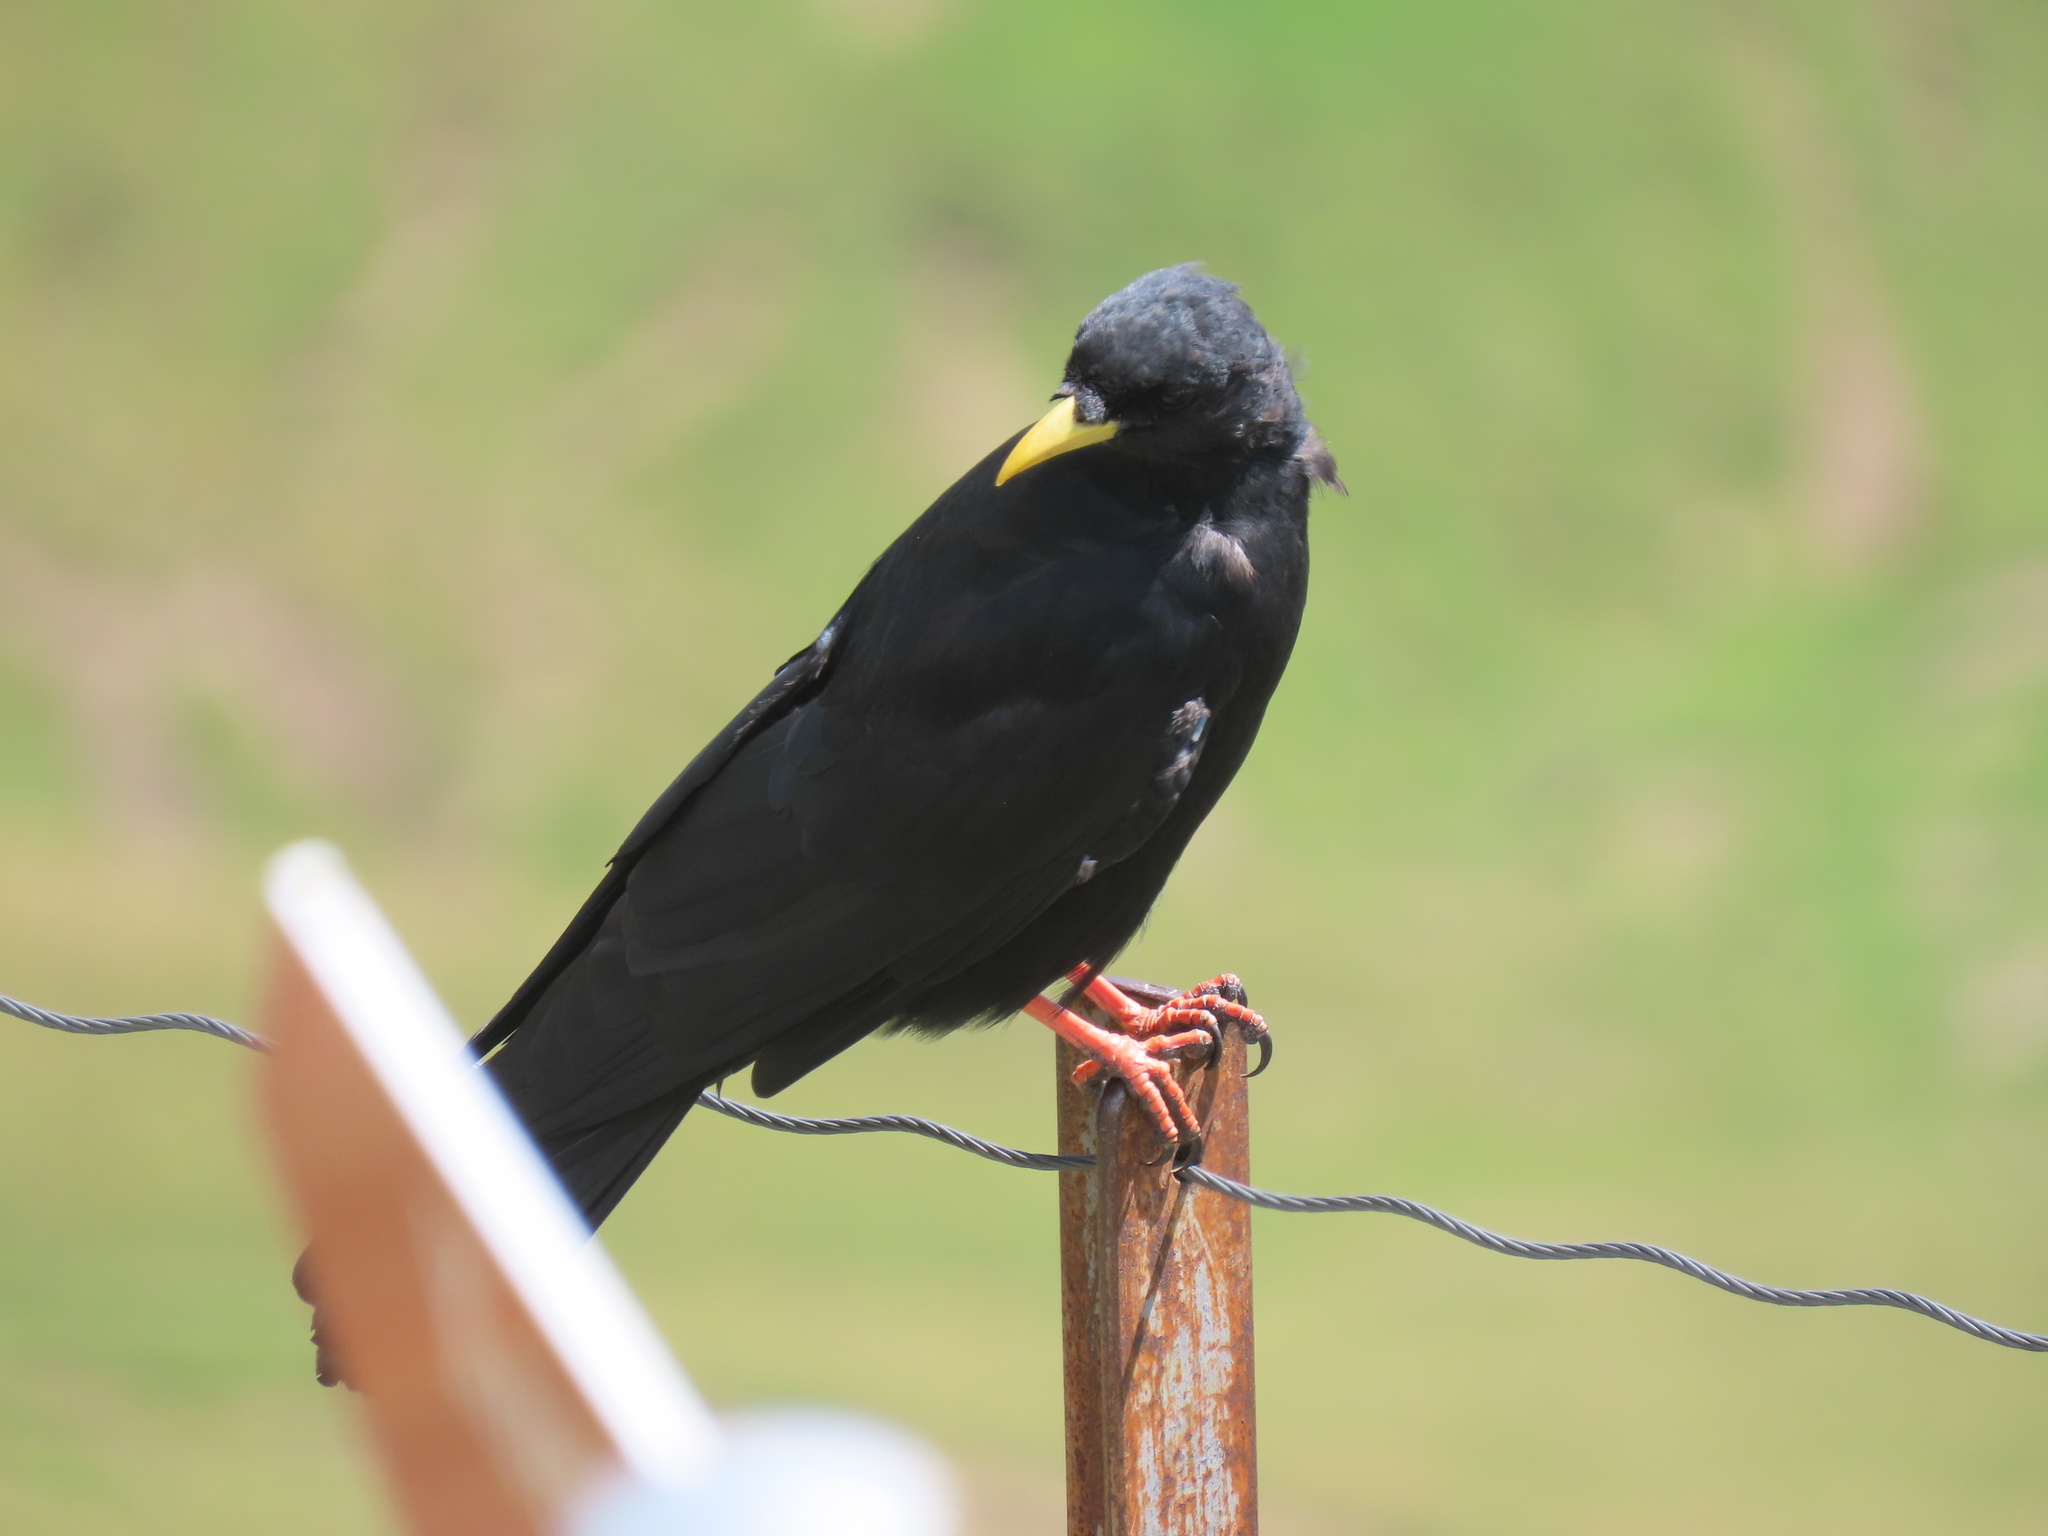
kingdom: Animalia
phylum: Chordata
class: Aves
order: Passeriformes
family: Corvidae
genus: Pyrrhocorax
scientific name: Pyrrhocorax graculus
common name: Alpine chough
